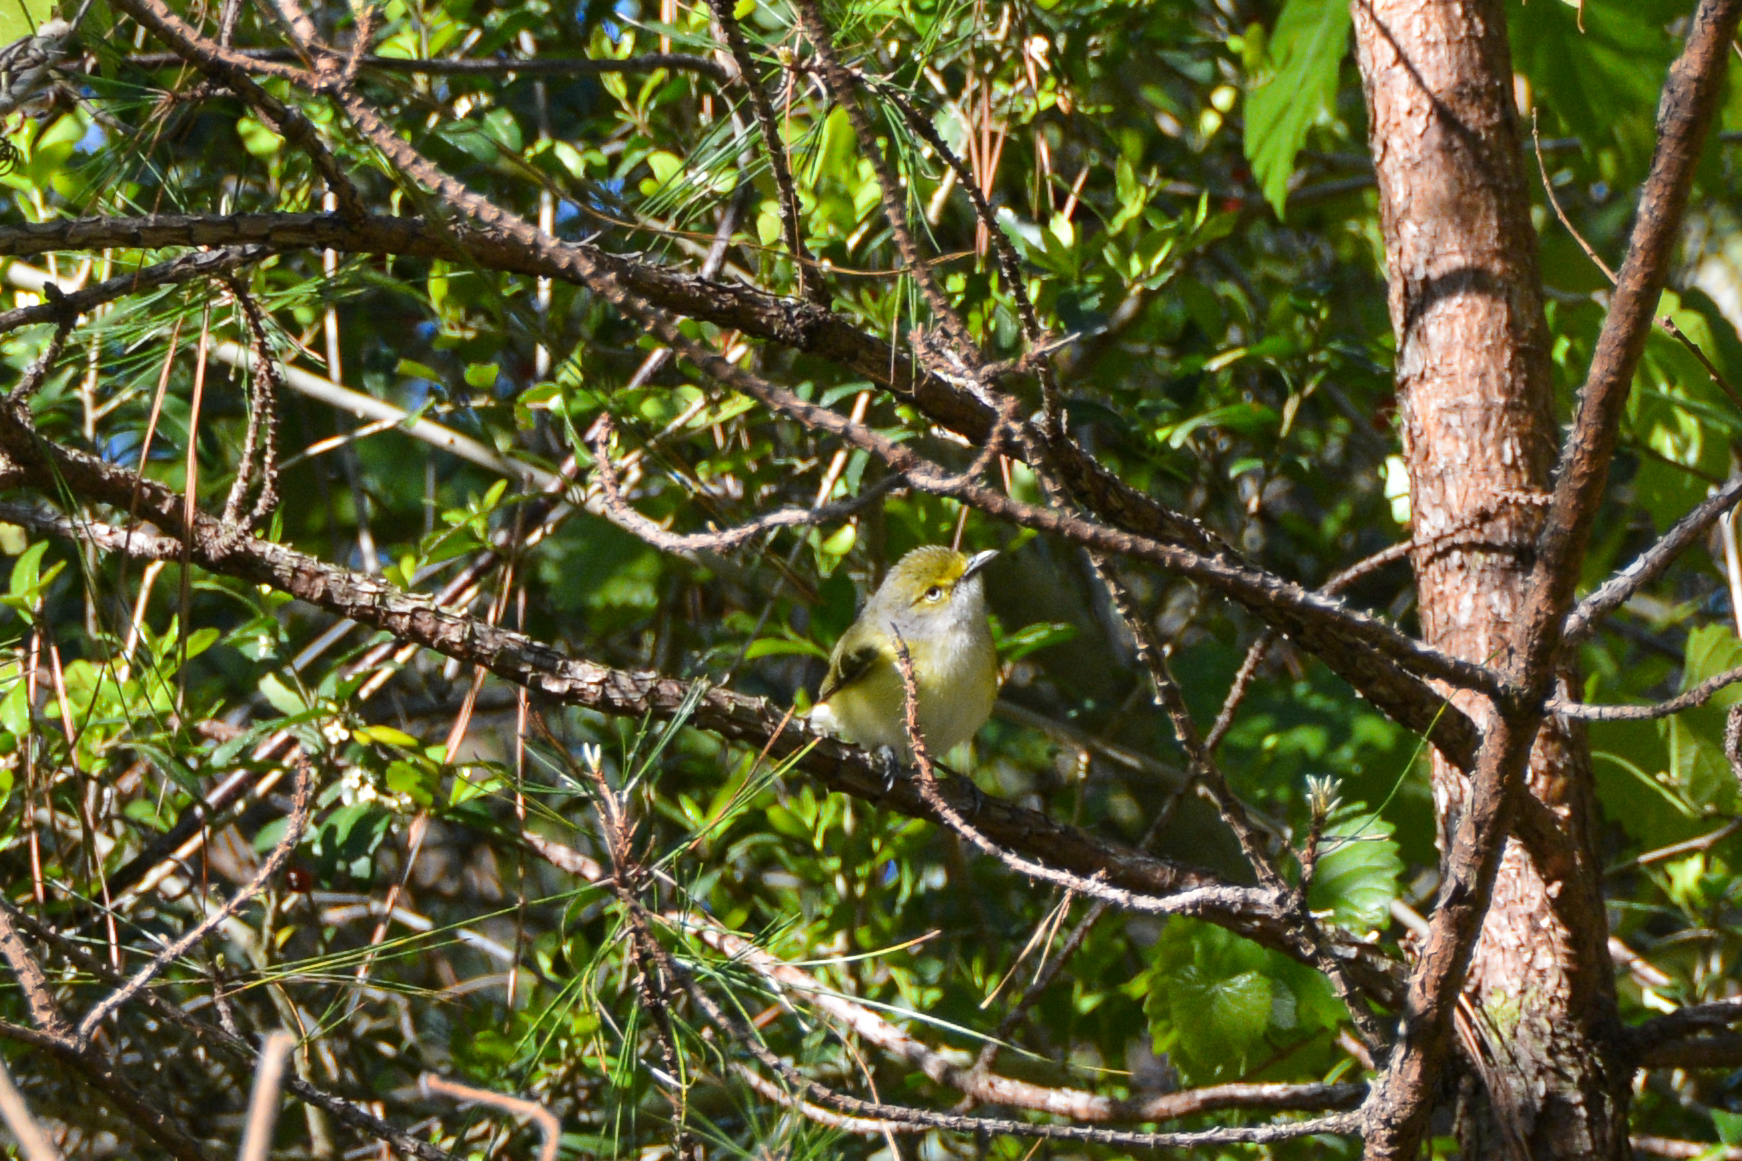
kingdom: Animalia
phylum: Chordata
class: Aves
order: Passeriformes
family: Vireonidae
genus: Vireo
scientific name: Vireo griseus
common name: White-eyed vireo
